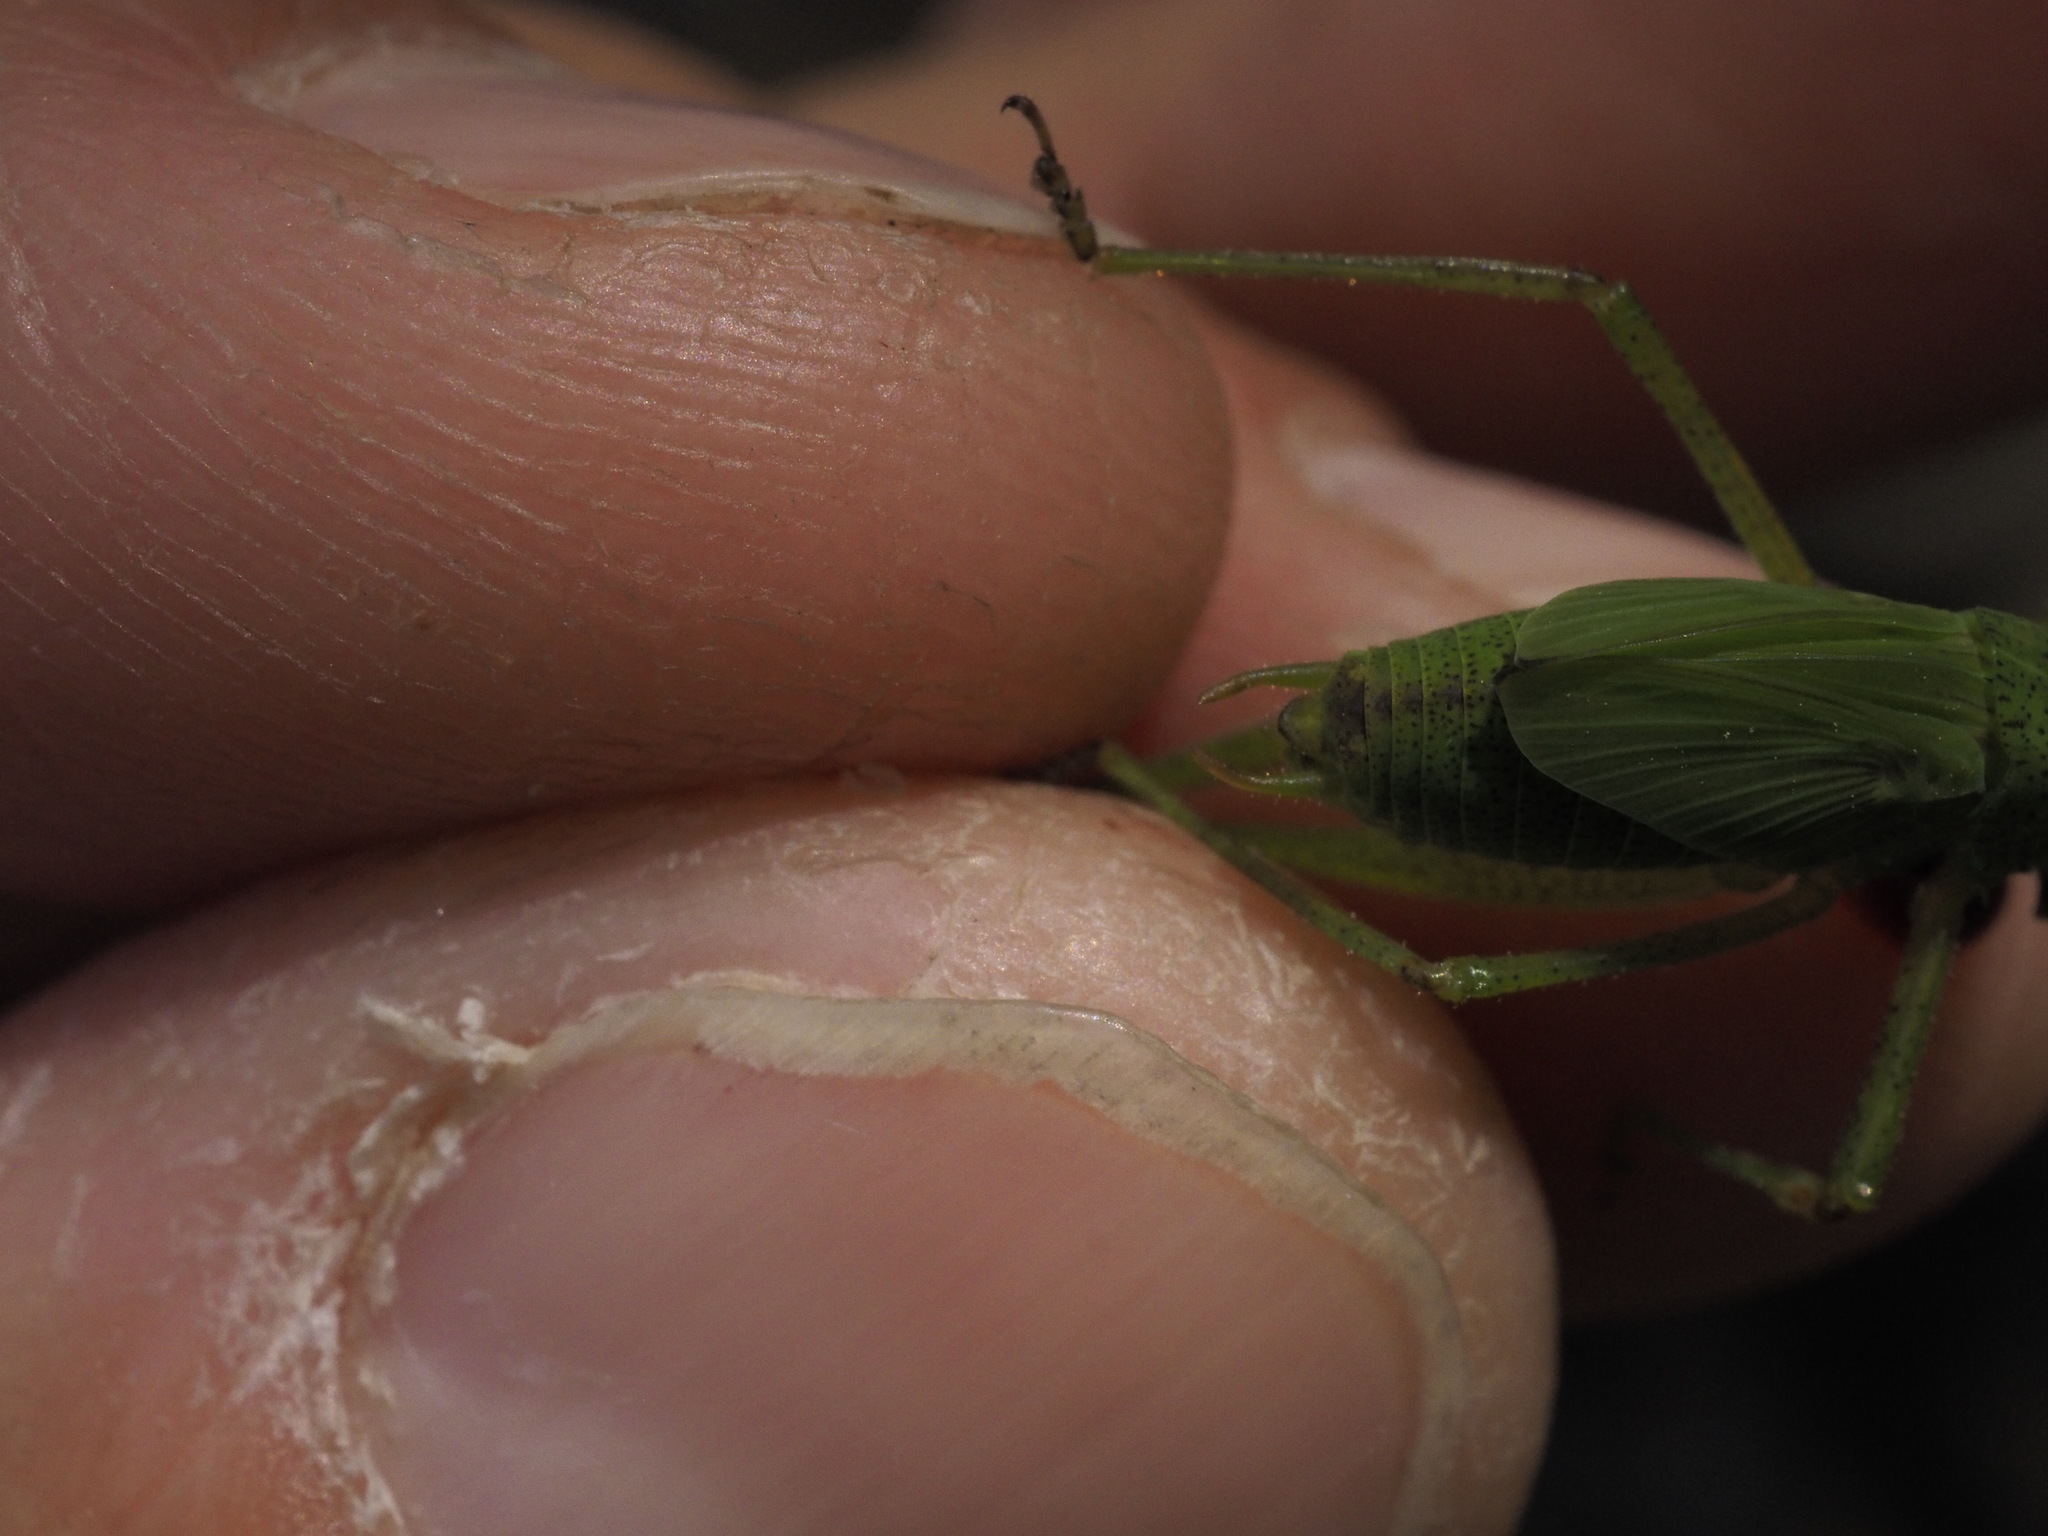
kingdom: Animalia
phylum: Arthropoda
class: Insecta
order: Orthoptera
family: Tettigoniidae
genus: Phaneroptera
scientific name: Phaneroptera nana
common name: Southern sickle bush-cricket
